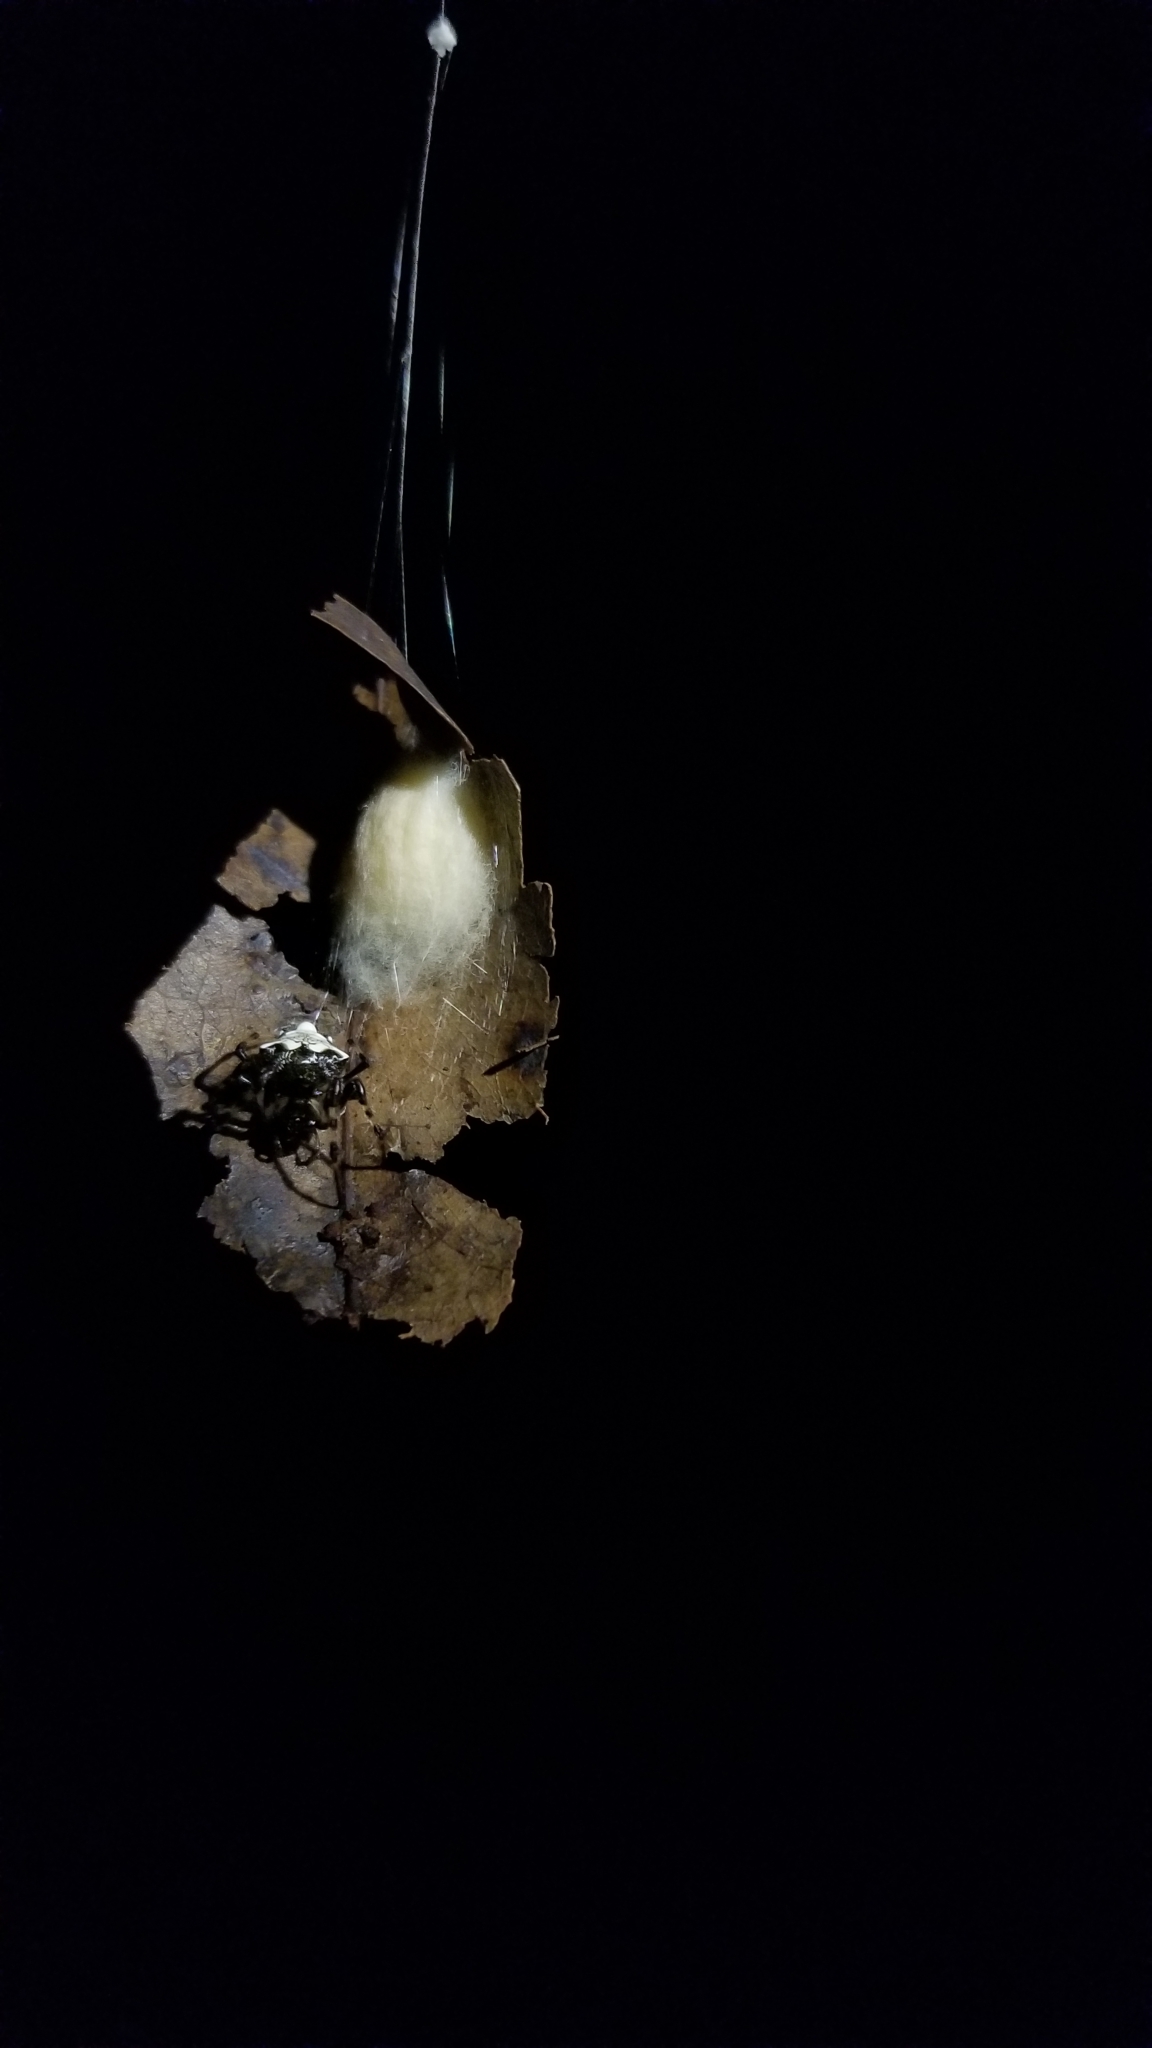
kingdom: Animalia
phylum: Arthropoda
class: Arachnida
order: Araneae
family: Araneidae
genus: Verrucosa
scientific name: Verrucosa arenata
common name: Orb weavers
